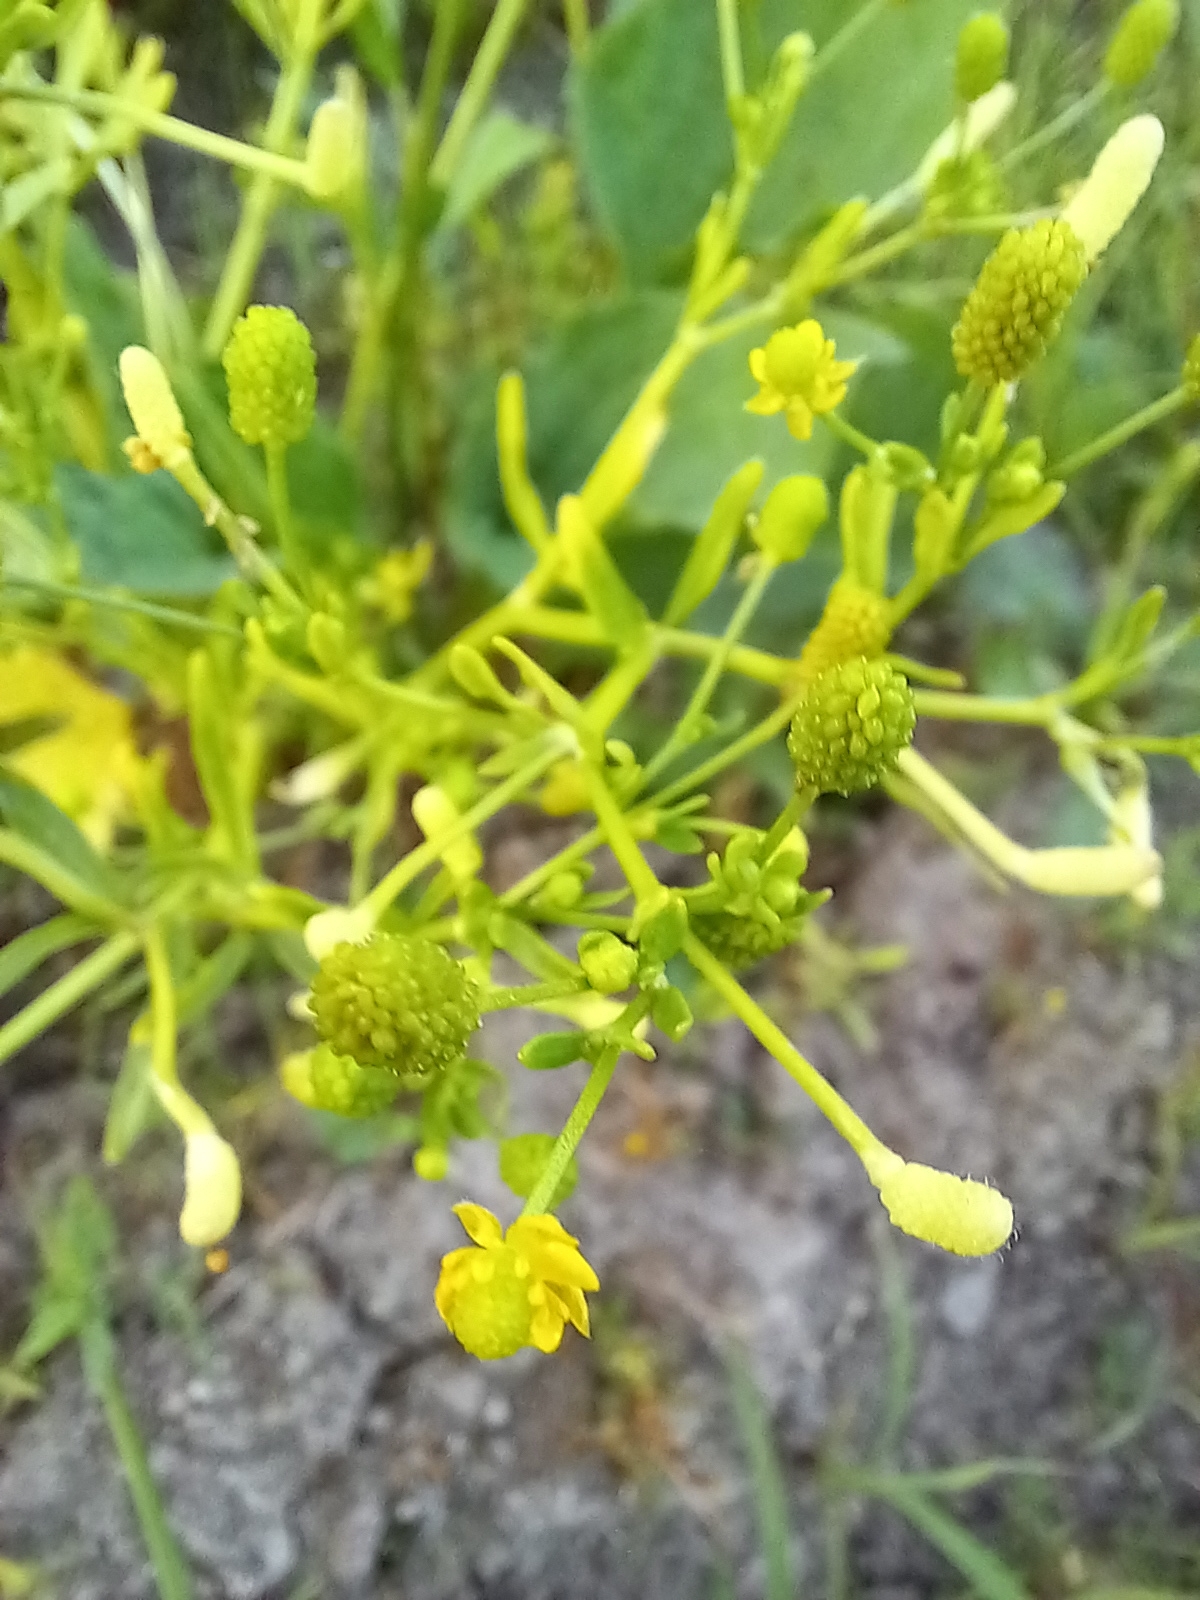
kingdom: Plantae
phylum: Tracheophyta
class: Magnoliopsida
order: Ranunculales
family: Ranunculaceae
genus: Ranunculus
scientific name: Ranunculus sceleratus
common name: Celery-leaved buttercup
